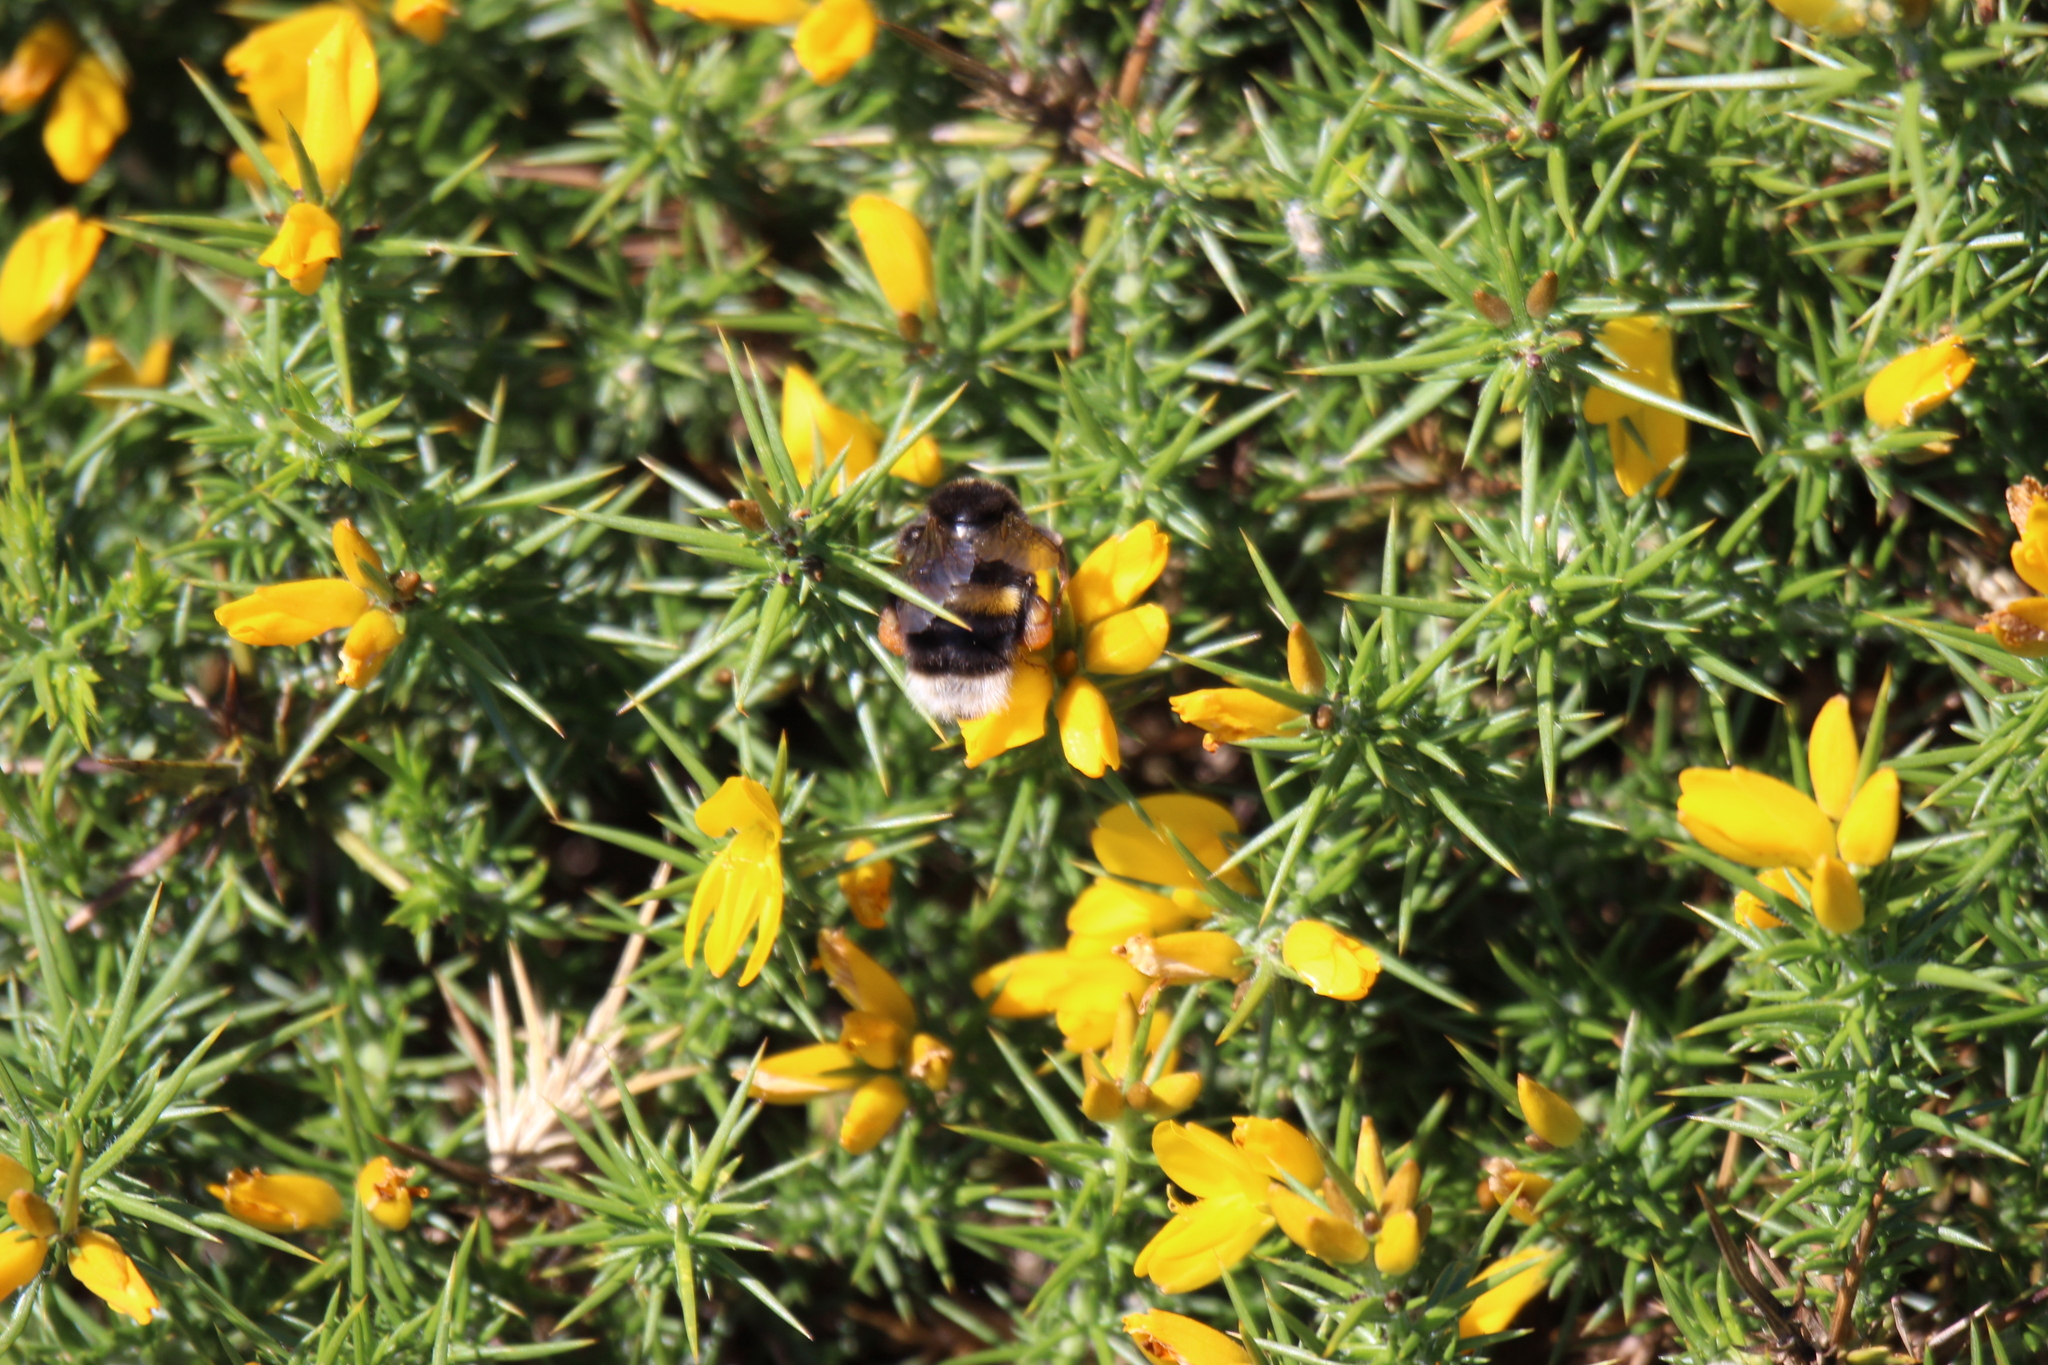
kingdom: Animalia
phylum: Arthropoda
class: Insecta
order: Hymenoptera
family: Apidae
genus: Bombus
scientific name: Bombus terrestris
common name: Buff-tailed bumblebee
